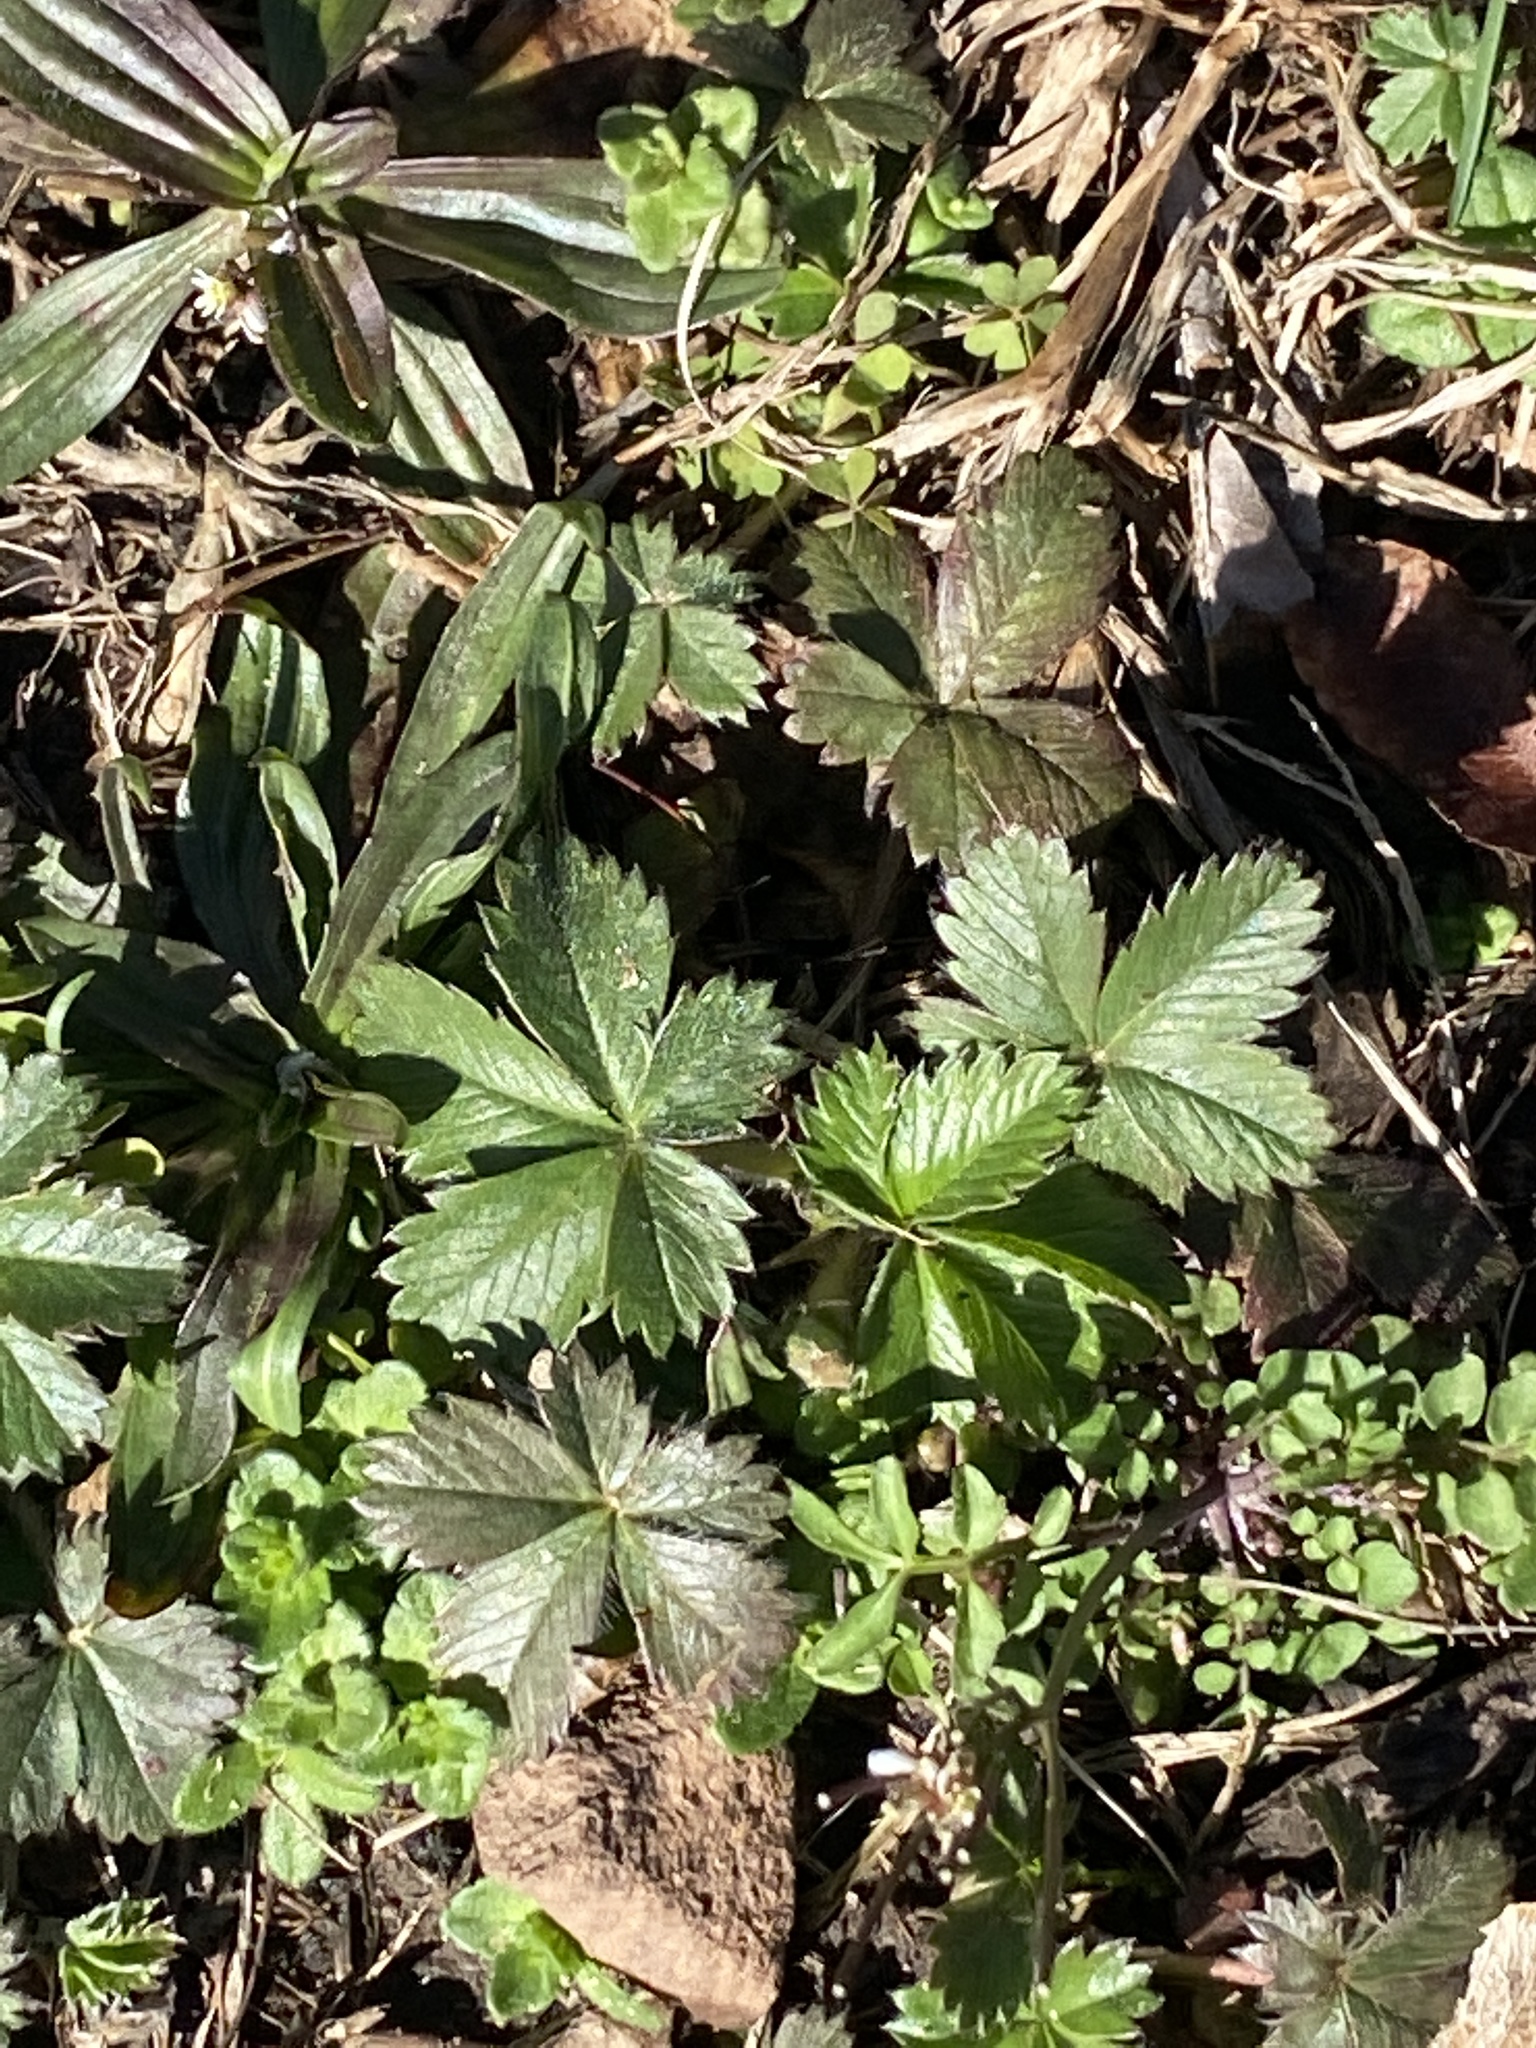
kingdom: Plantae
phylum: Tracheophyta
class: Magnoliopsida
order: Rosales
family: Rosaceae
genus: Potentilla
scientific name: Potentilla canadensis
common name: Canada cinquefoil
